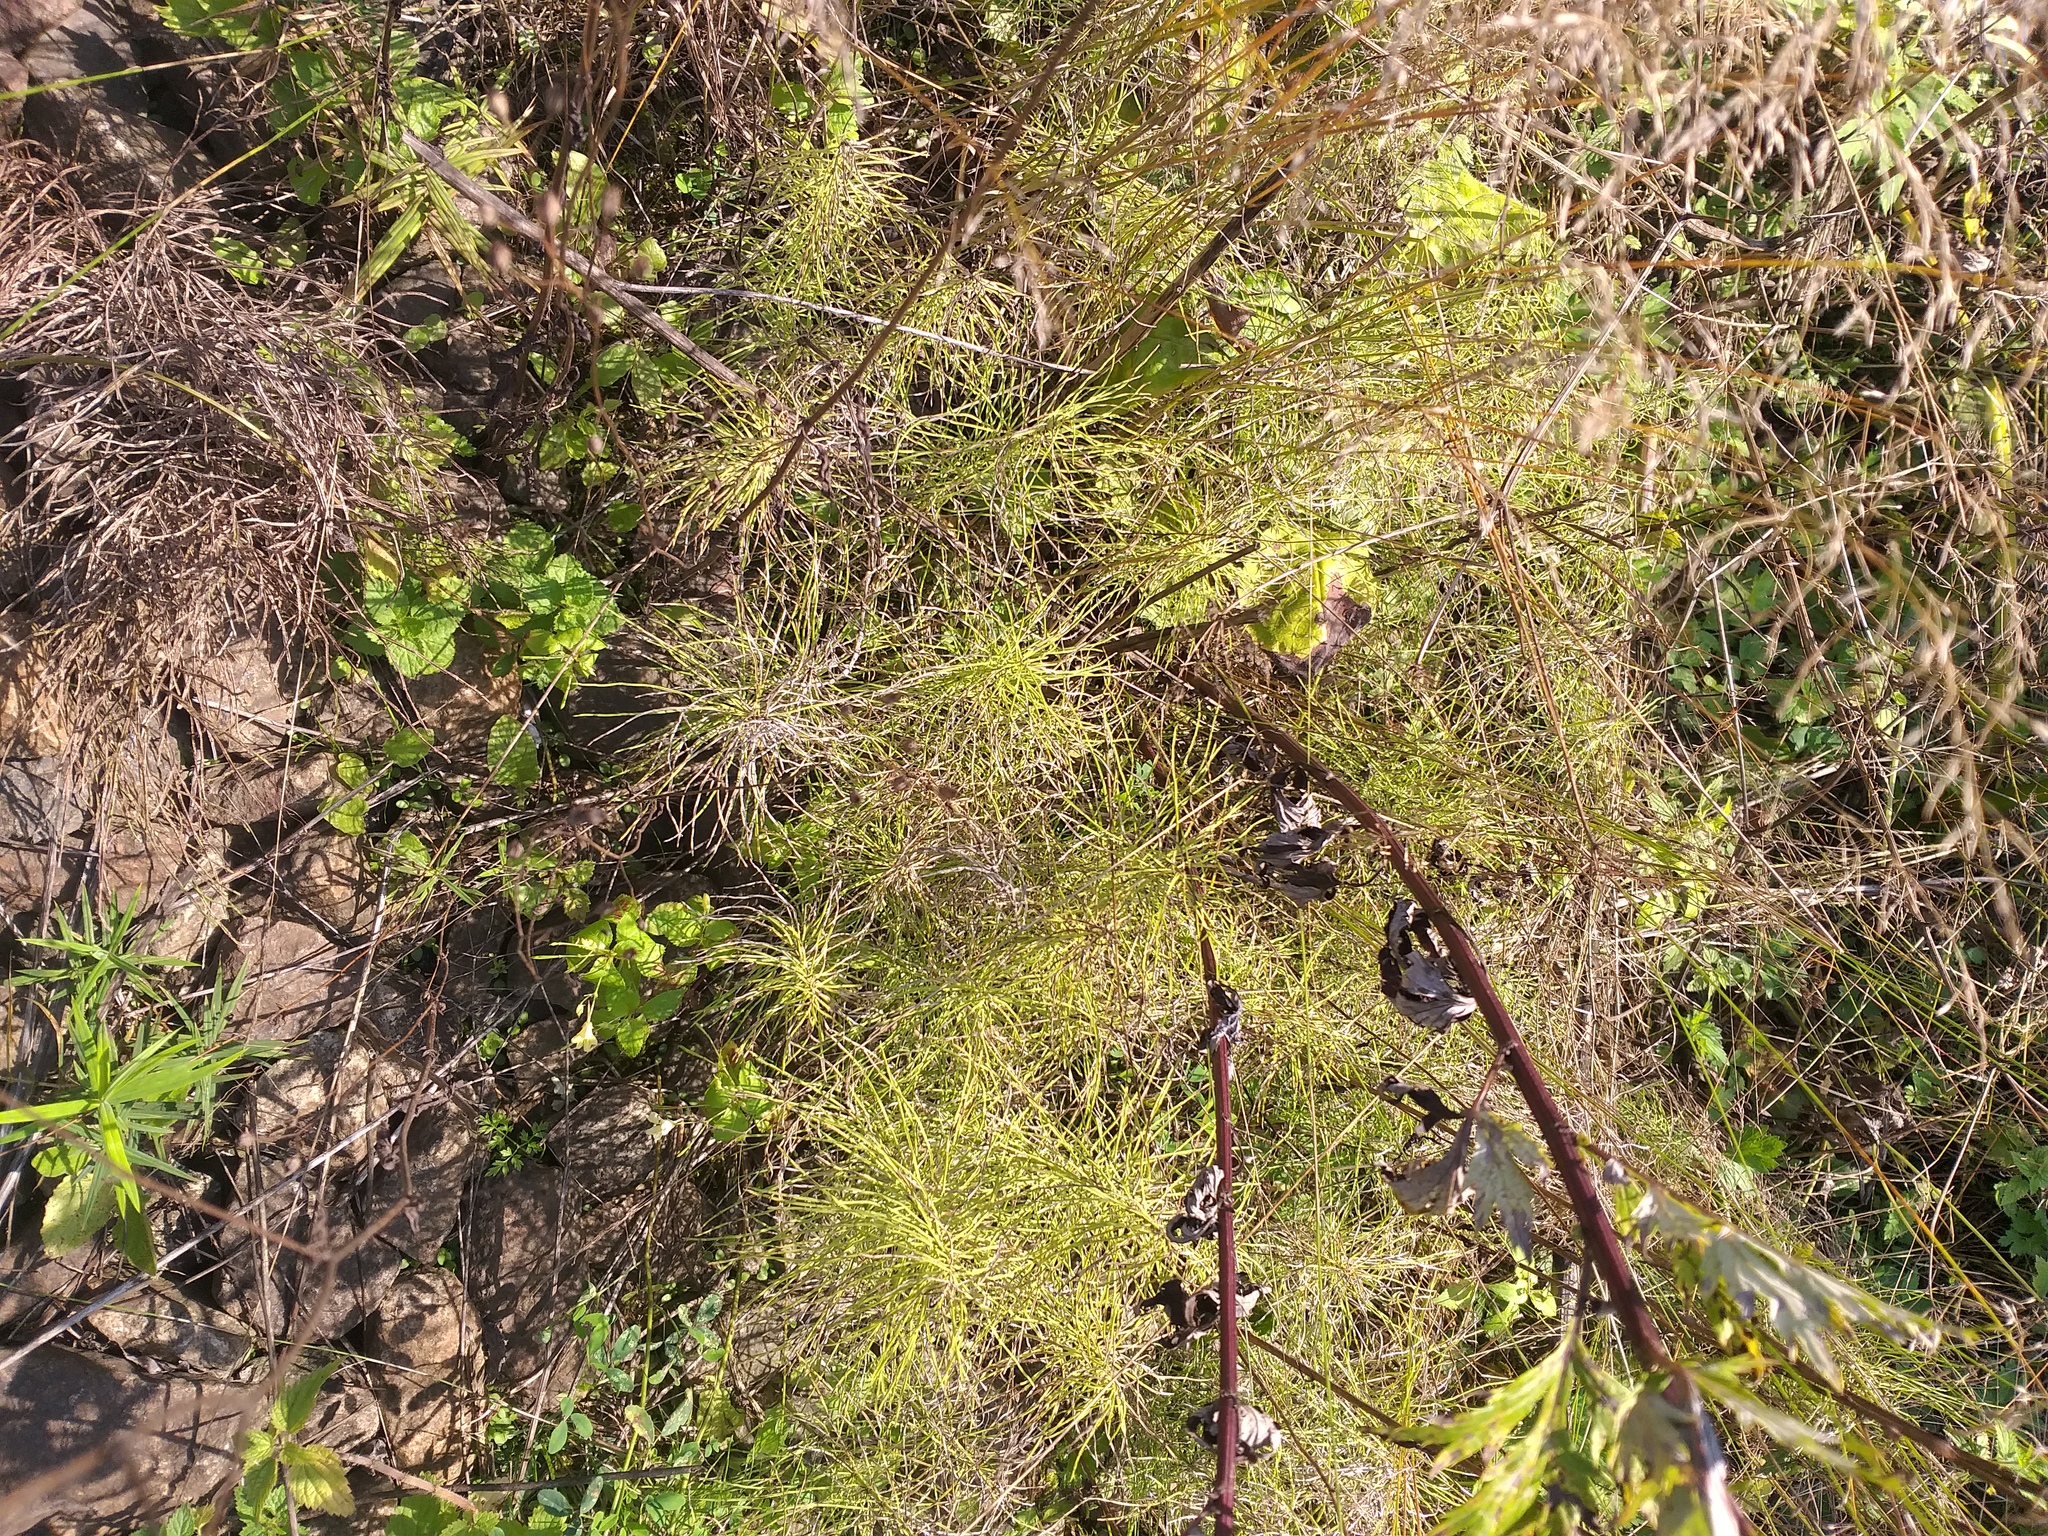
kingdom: Plantae
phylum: Tracheophyta
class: Polypodiopsida
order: Equisetales
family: Equisetaceae
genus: Equisetum
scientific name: Equisetum pratense
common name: Meadow horsetail
